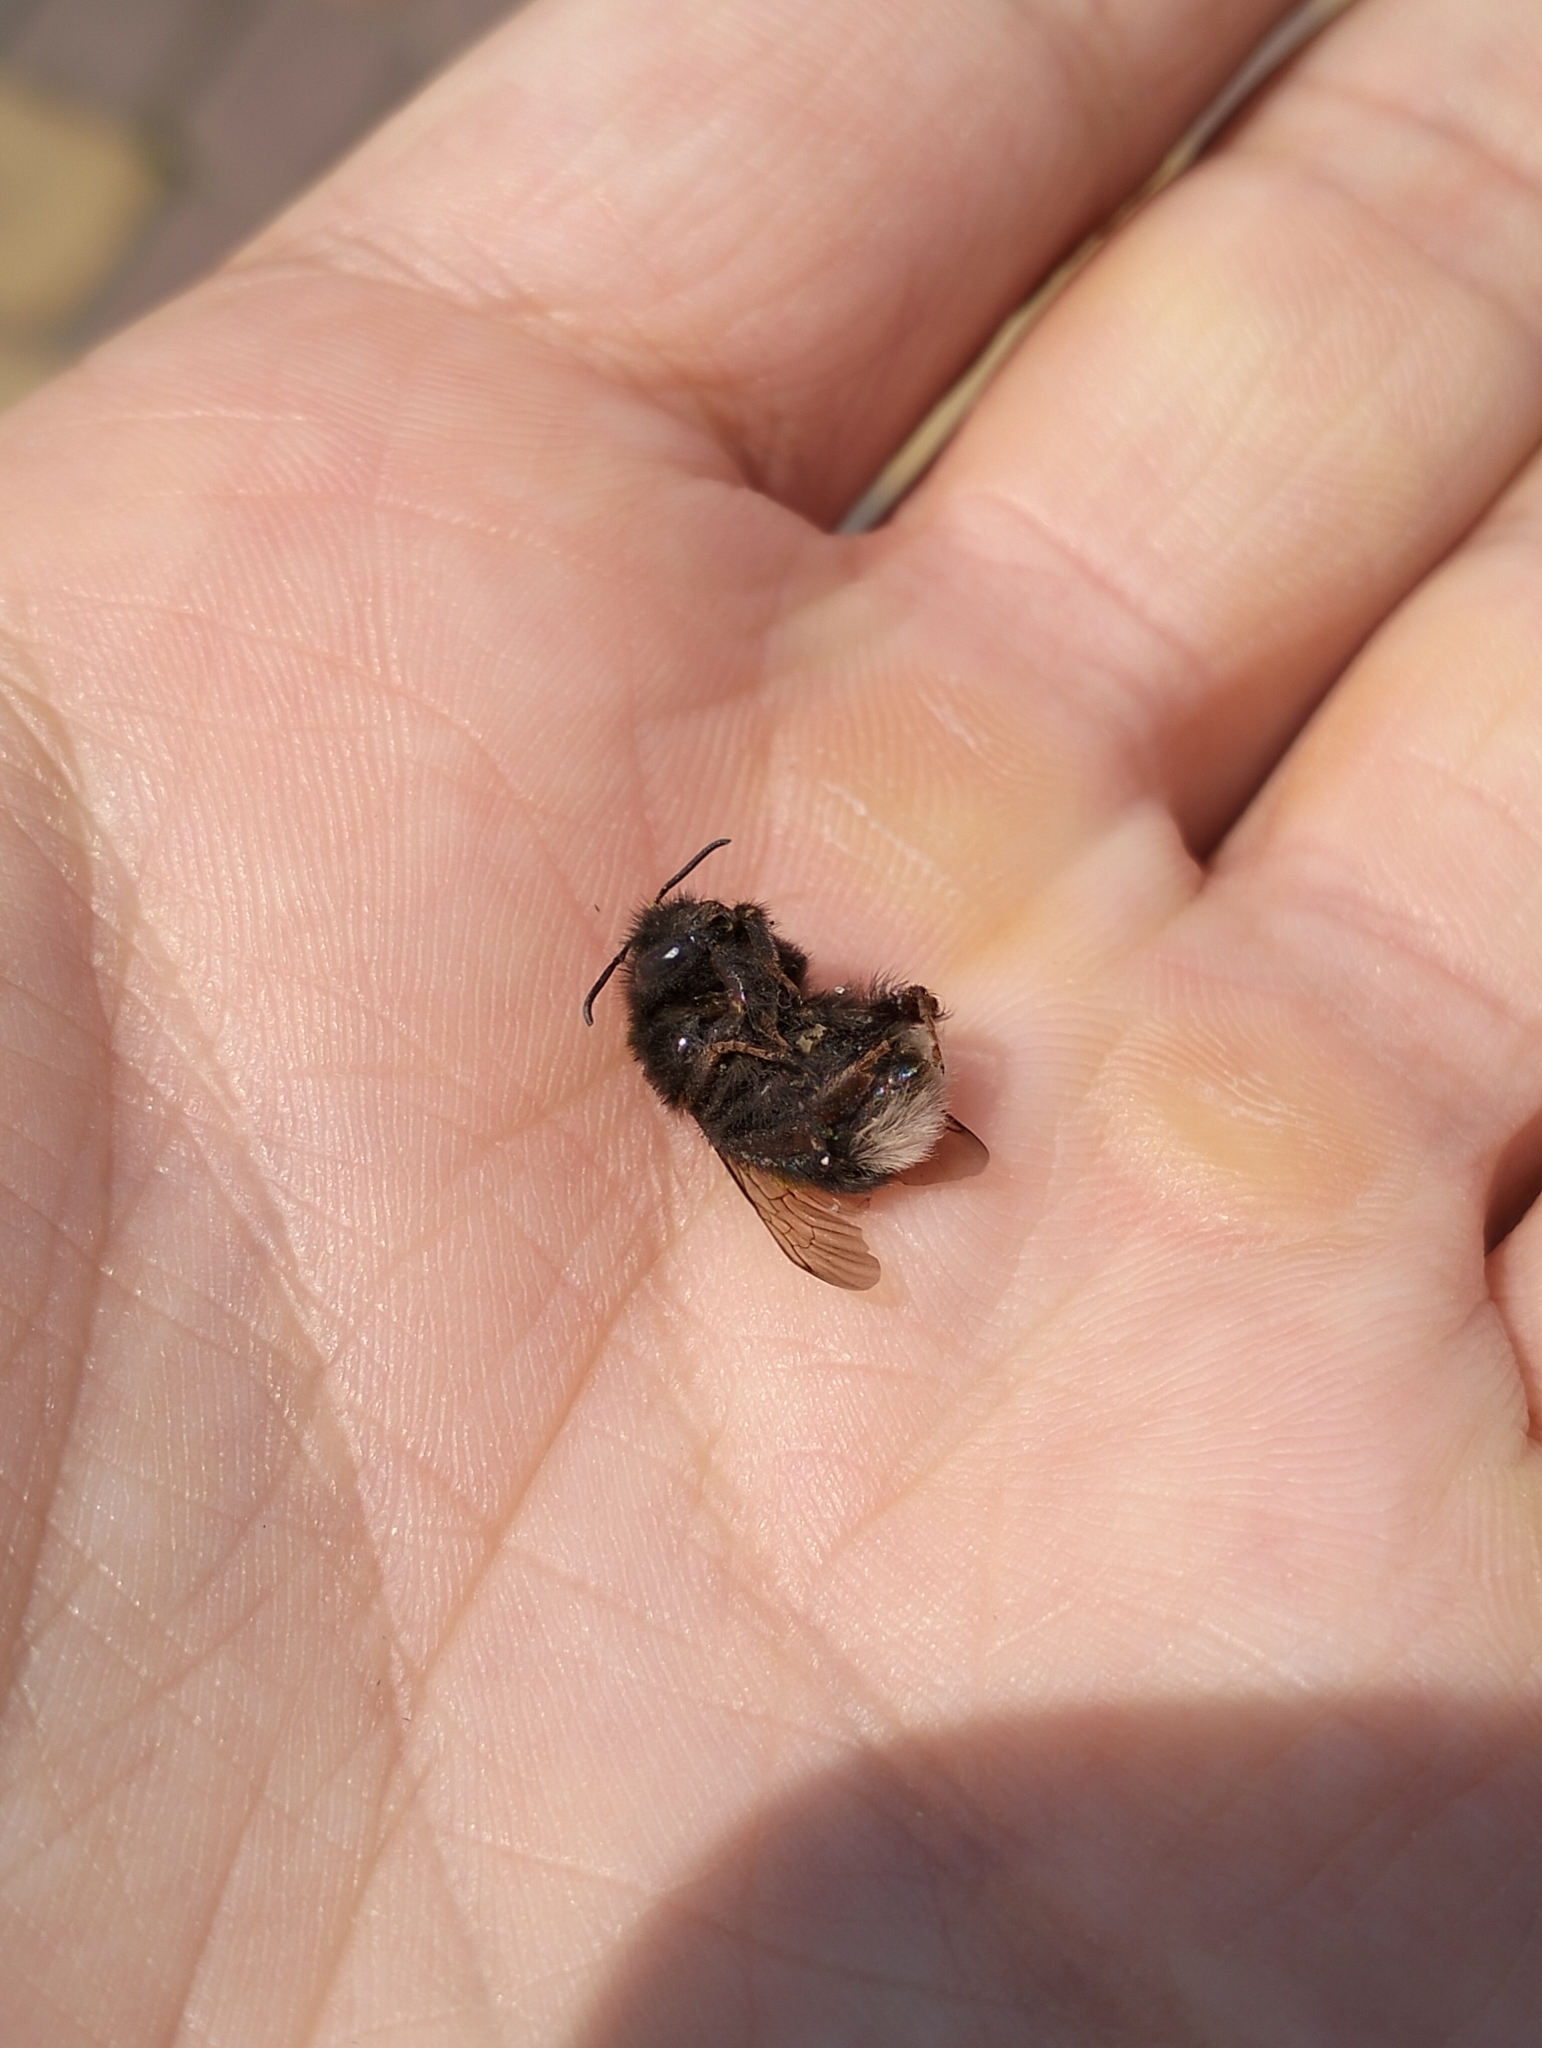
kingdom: Animalia
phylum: Arthropoda
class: Insecta
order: Hymenoptera
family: Apidae
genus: Bombus
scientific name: Bombus
